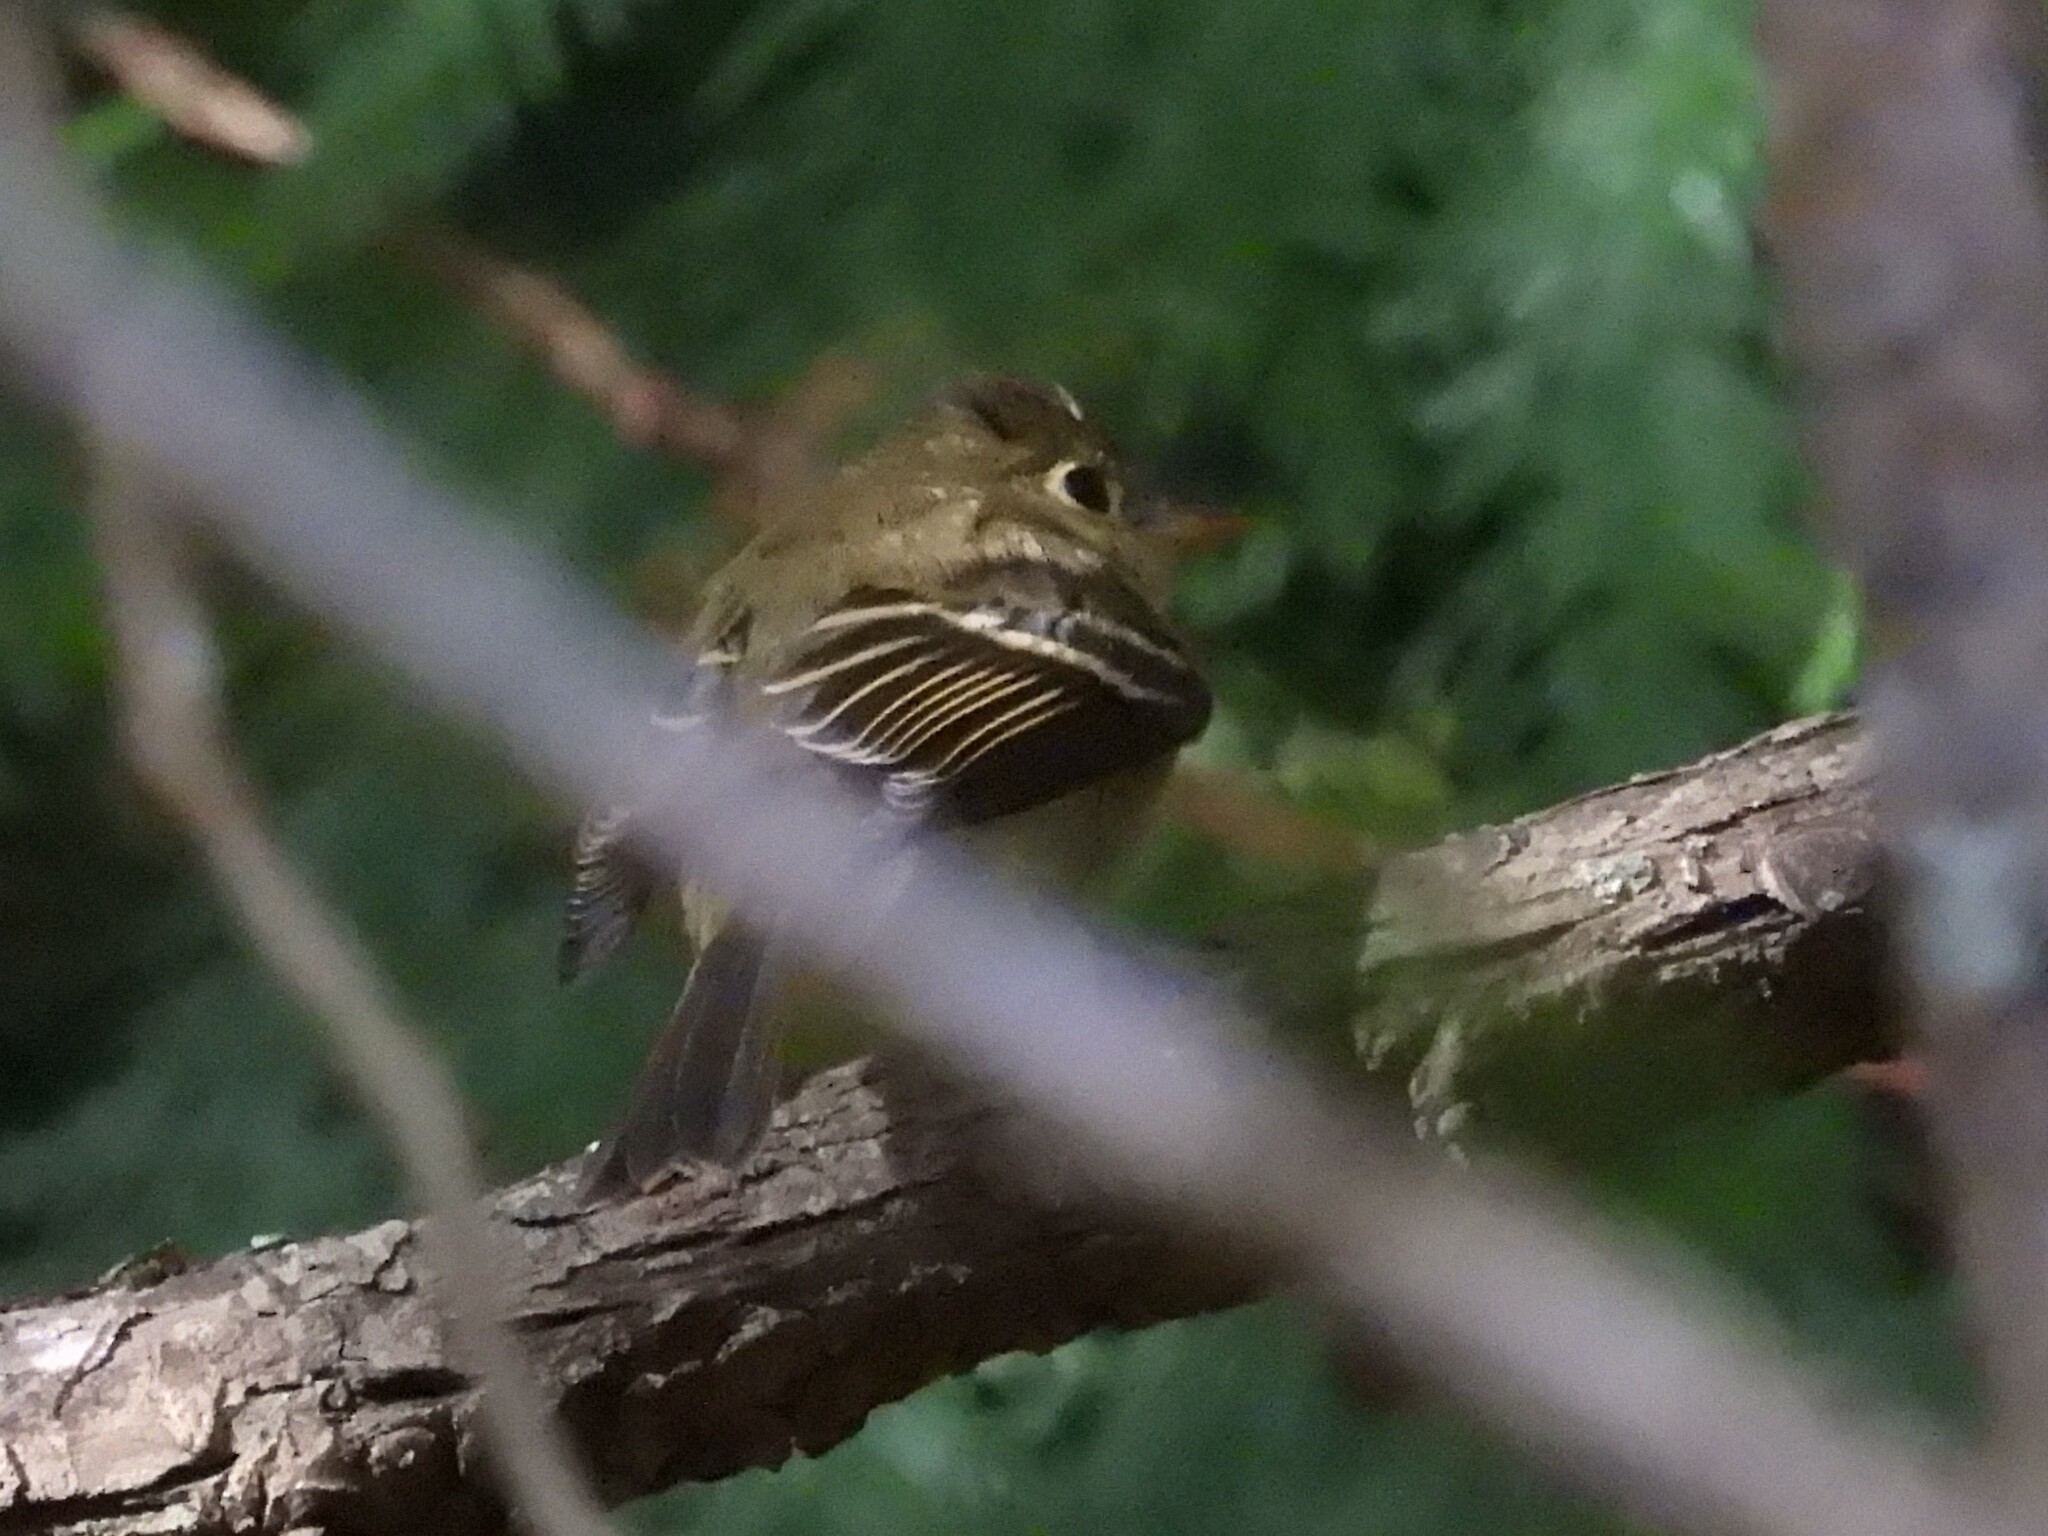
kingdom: Animalia
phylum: Chordata
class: Aves
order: Passeriformes
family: Tyrannidae
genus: Empidonax
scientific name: Empidonax difficilis
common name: Pacific-slope flycatcher
